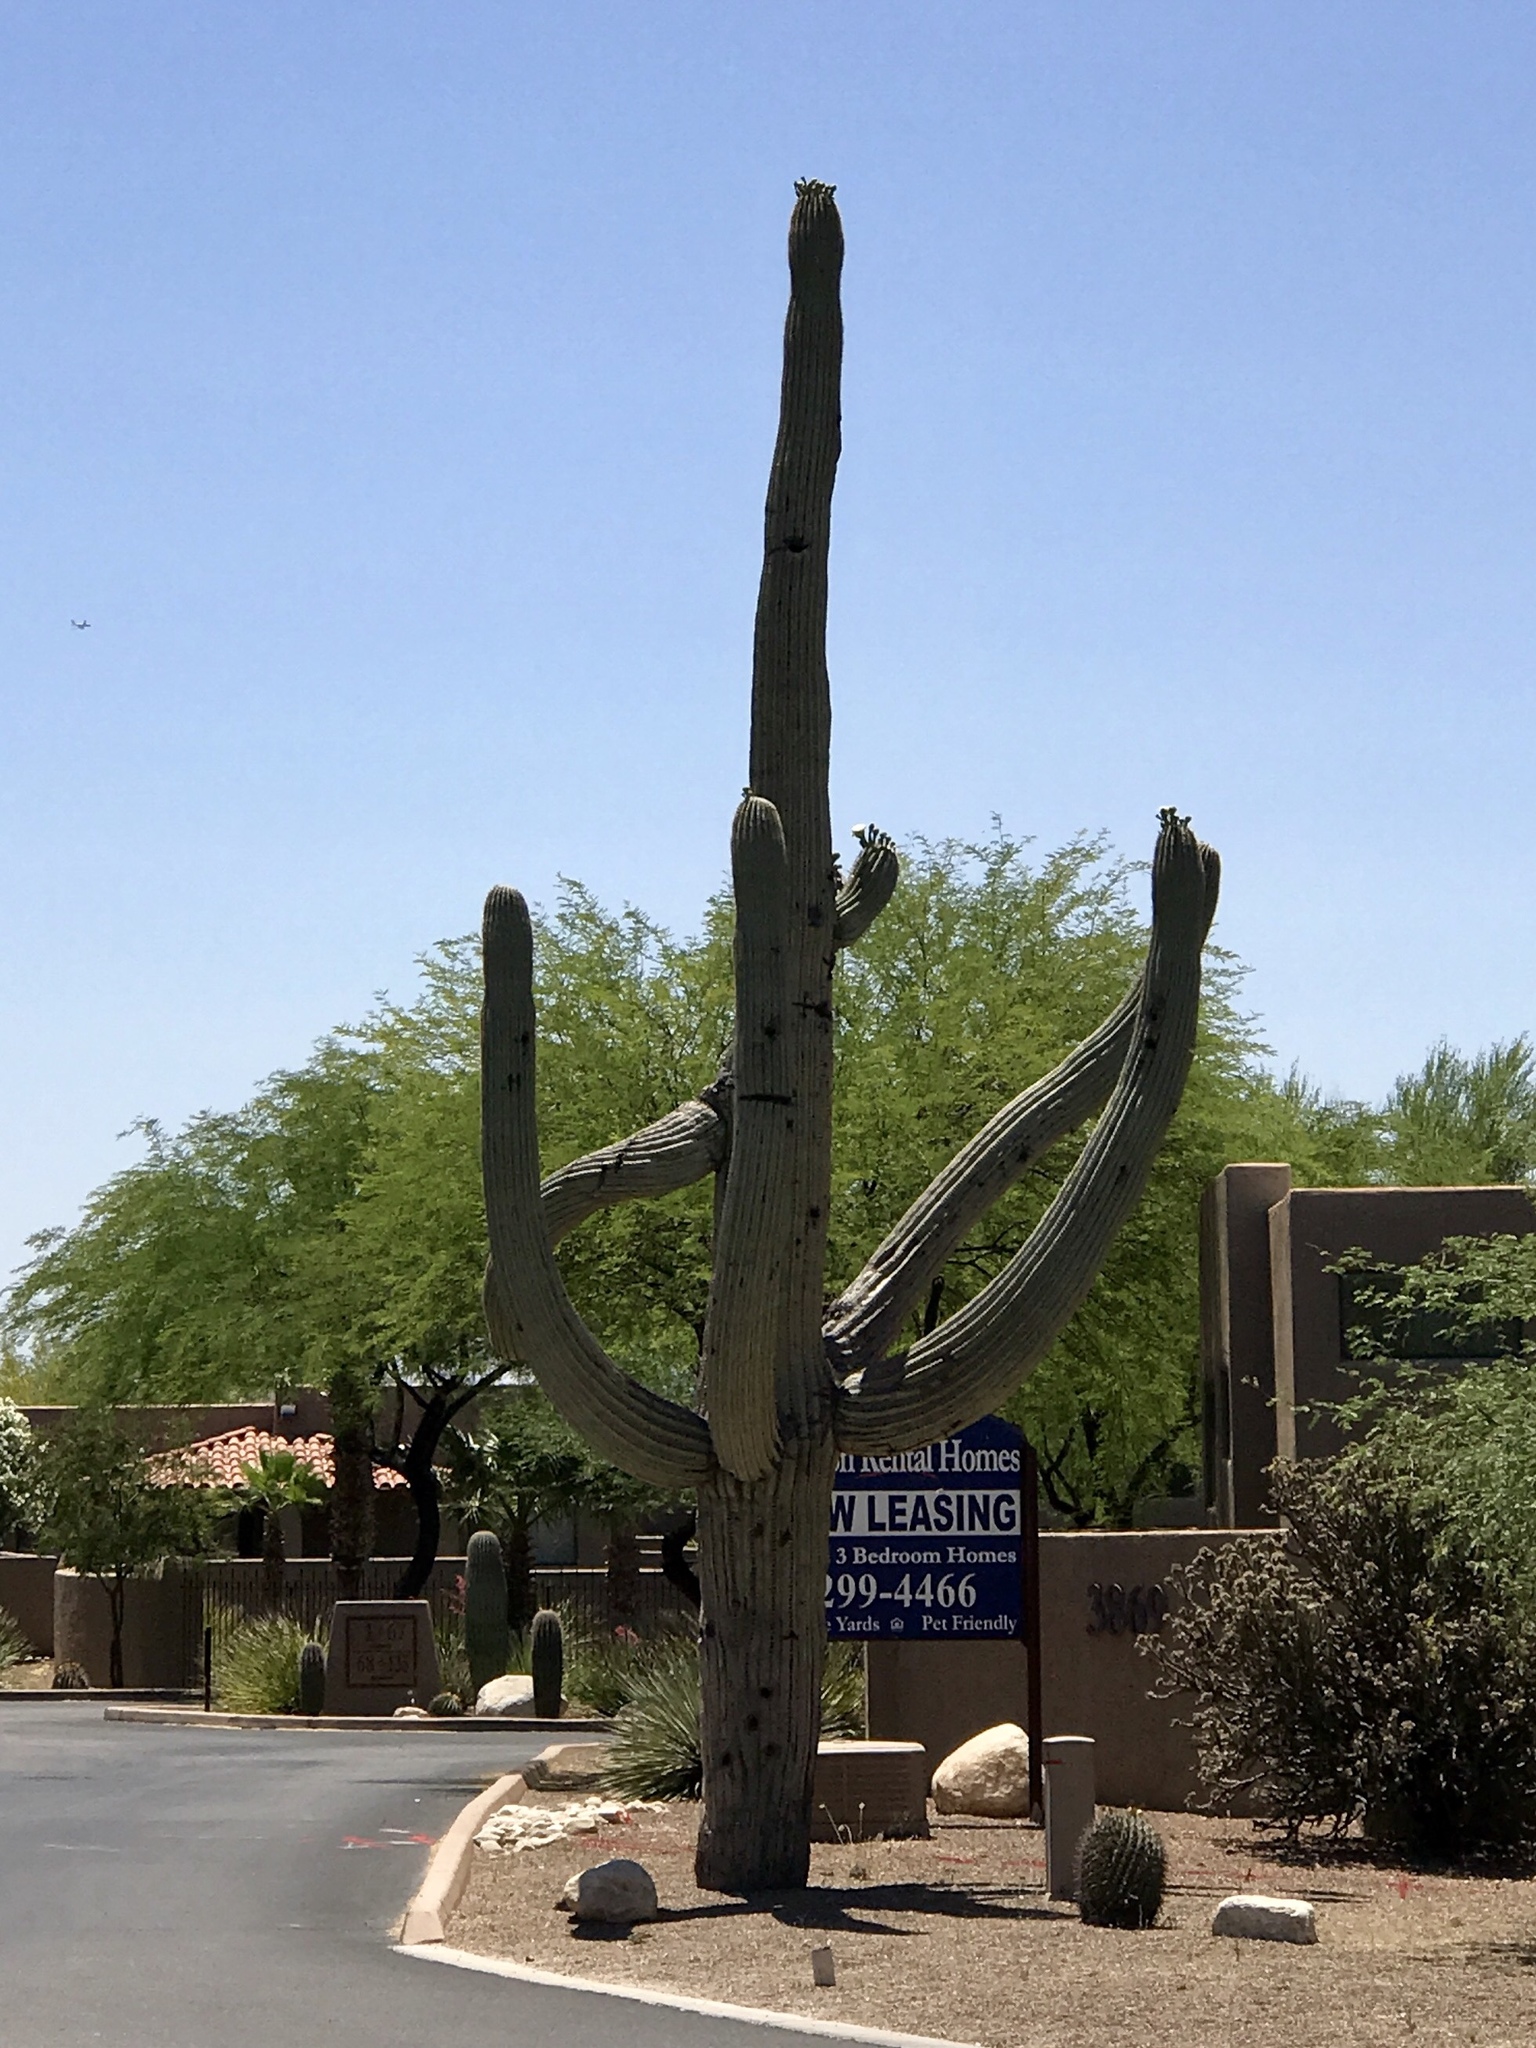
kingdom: Plantae
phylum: Tracheophyta
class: Magnoliopsida
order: Caryophyllales
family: Cactaceae
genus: Carnegiea
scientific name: Carnegiea gigantea
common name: Saguaro
